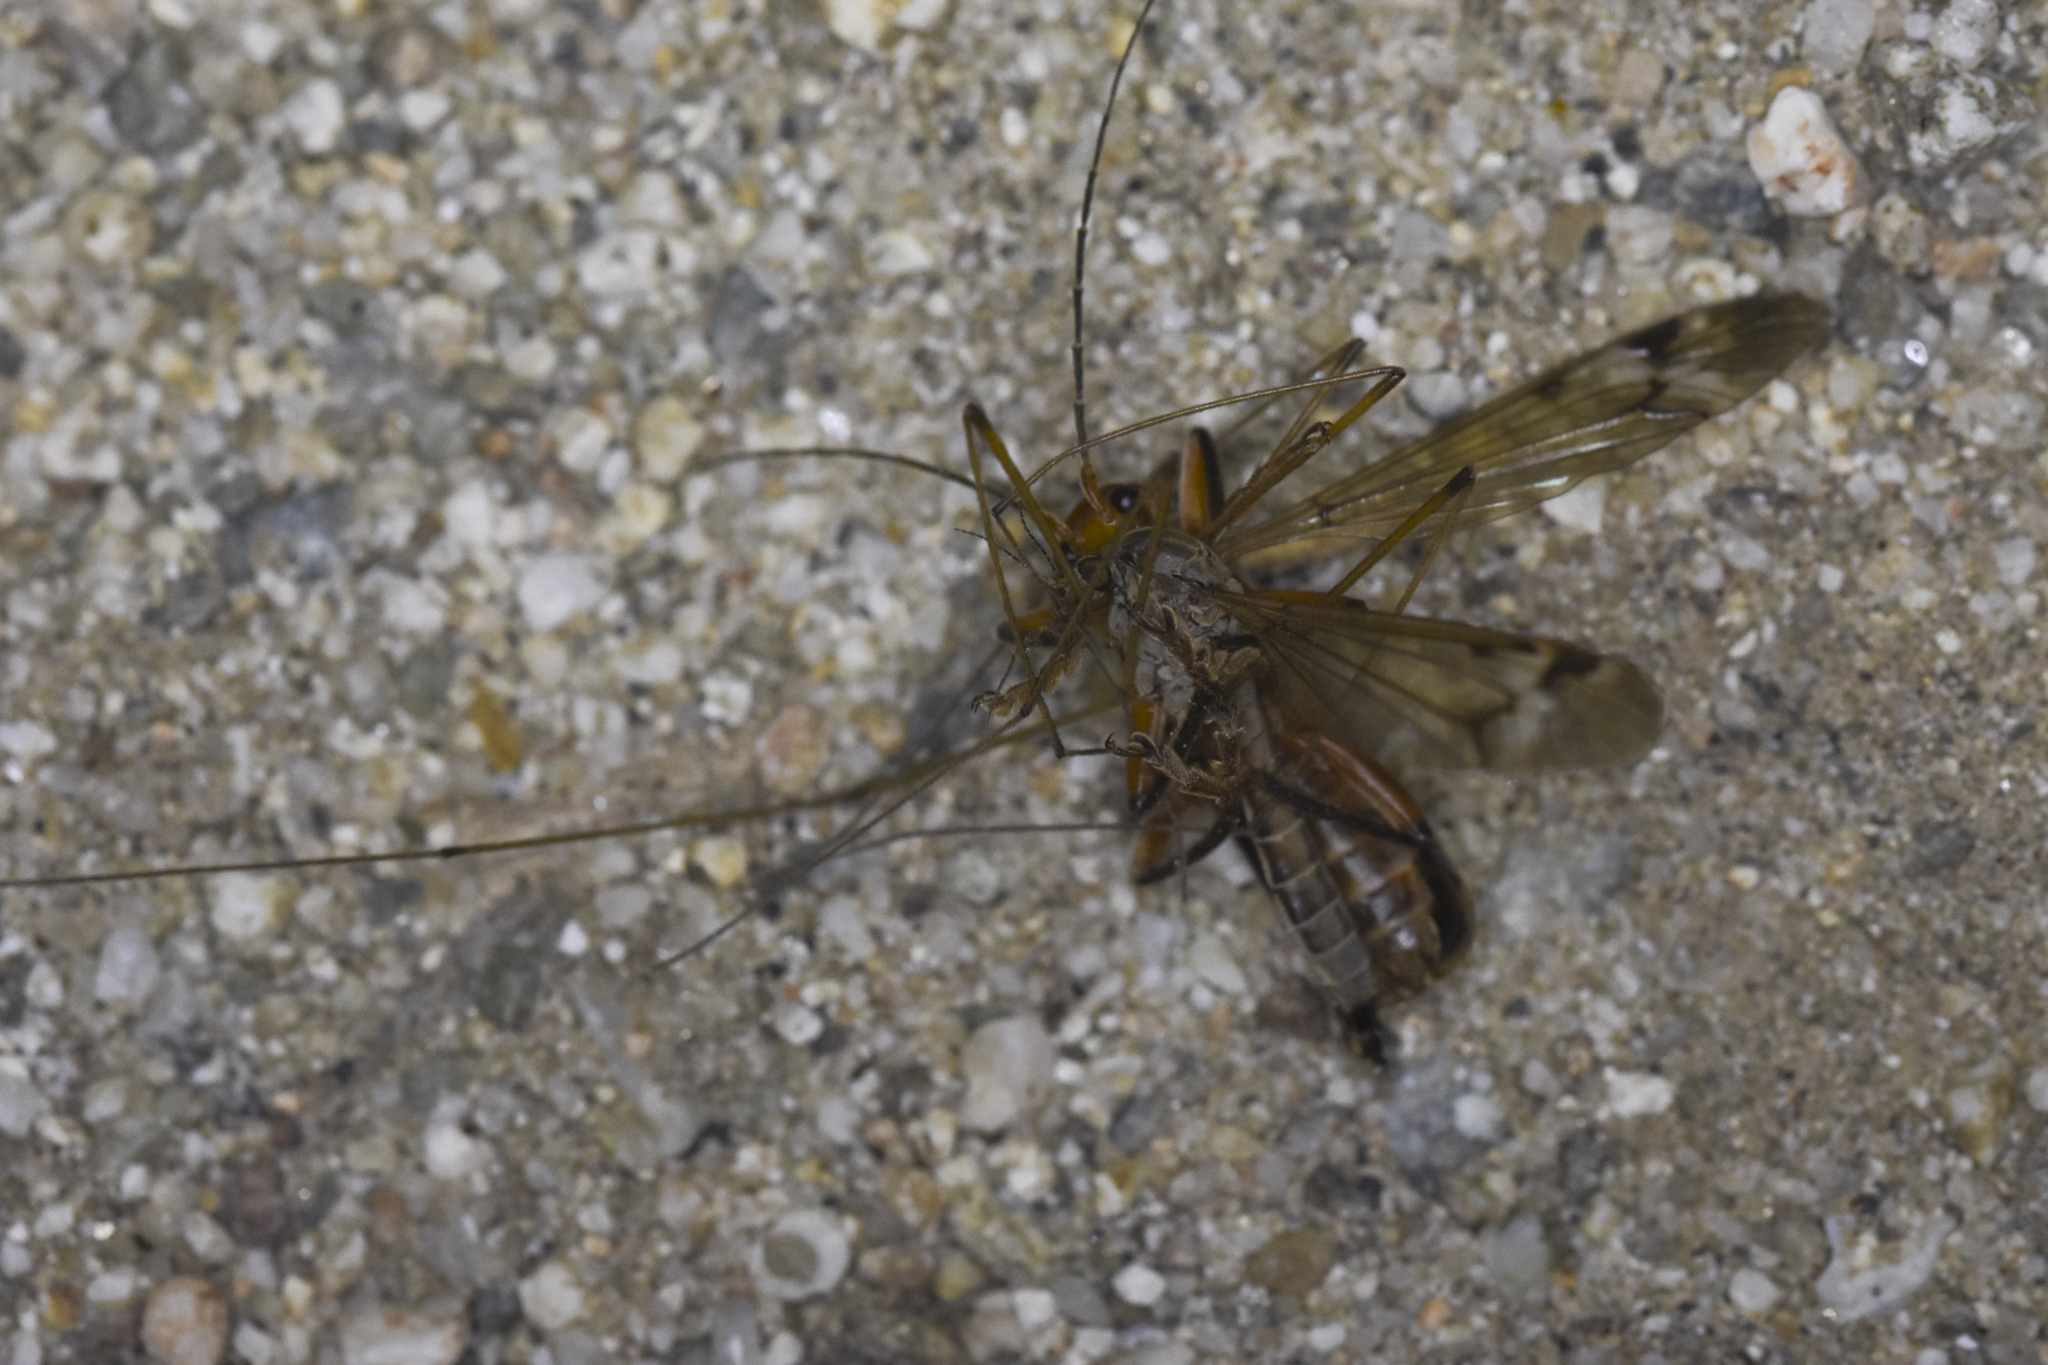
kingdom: Animalia
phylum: Arthropoda
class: Insecta
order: Coleoptera
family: Cantharidae
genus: Pacificanthia
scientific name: Pacificanthia consors
